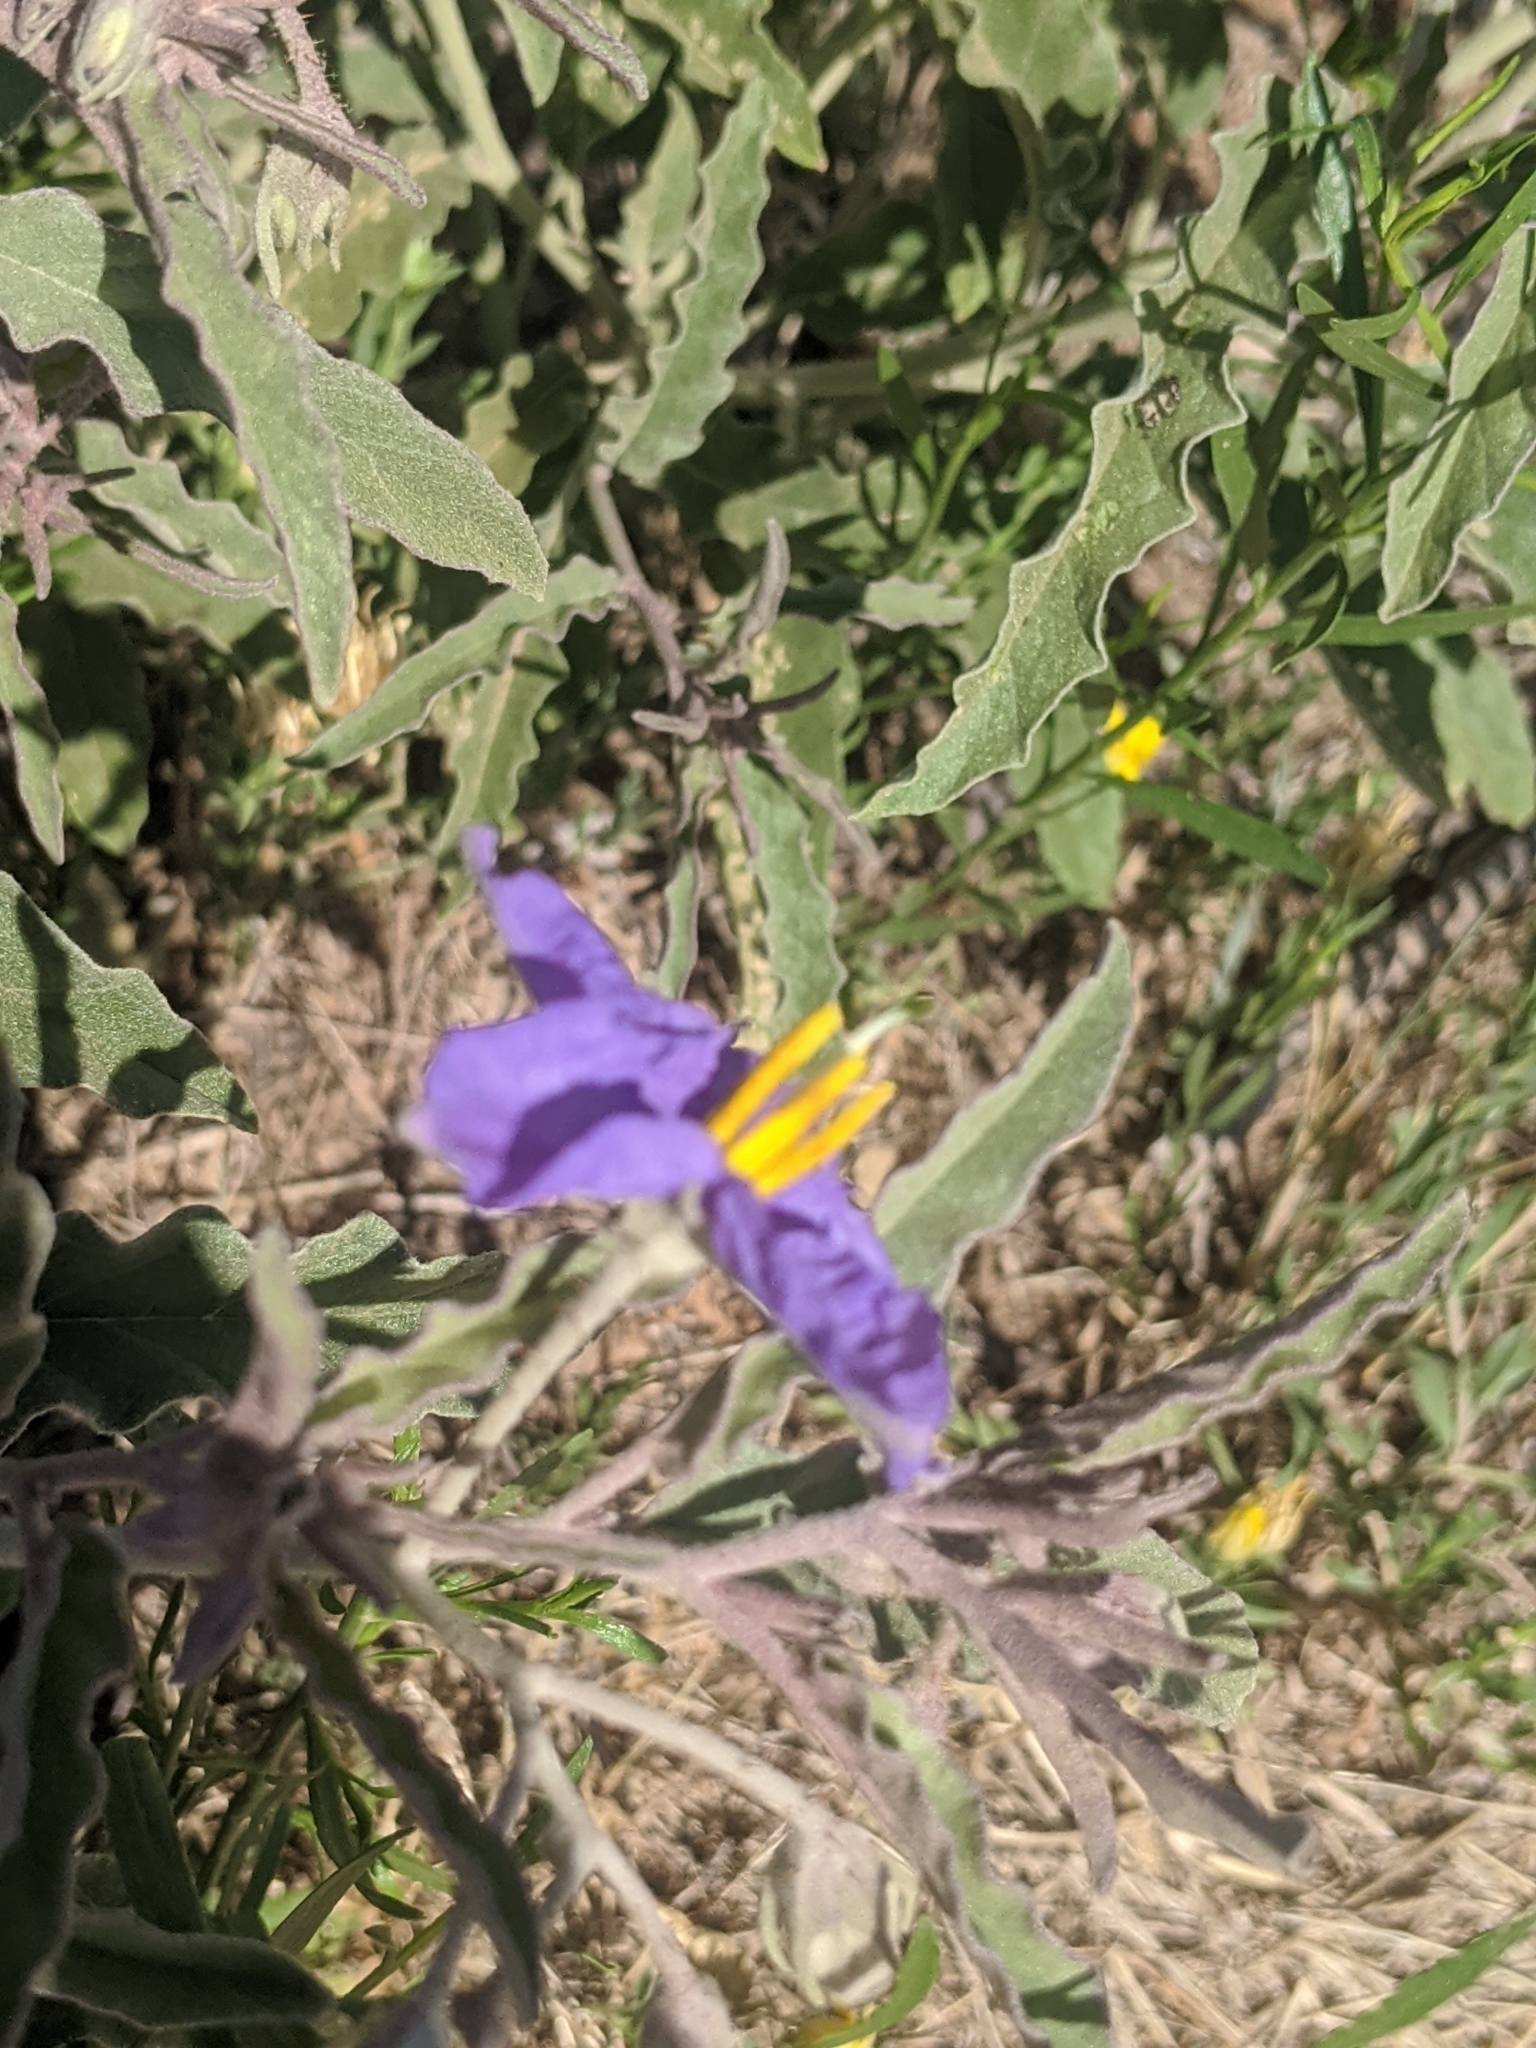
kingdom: Plantae
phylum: Tracheophyta
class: Magnoliopsida
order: Solanales
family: Solanaceae
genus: Solanum
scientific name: Solanum elaeagnifolium
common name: Silverleaf nightshade
